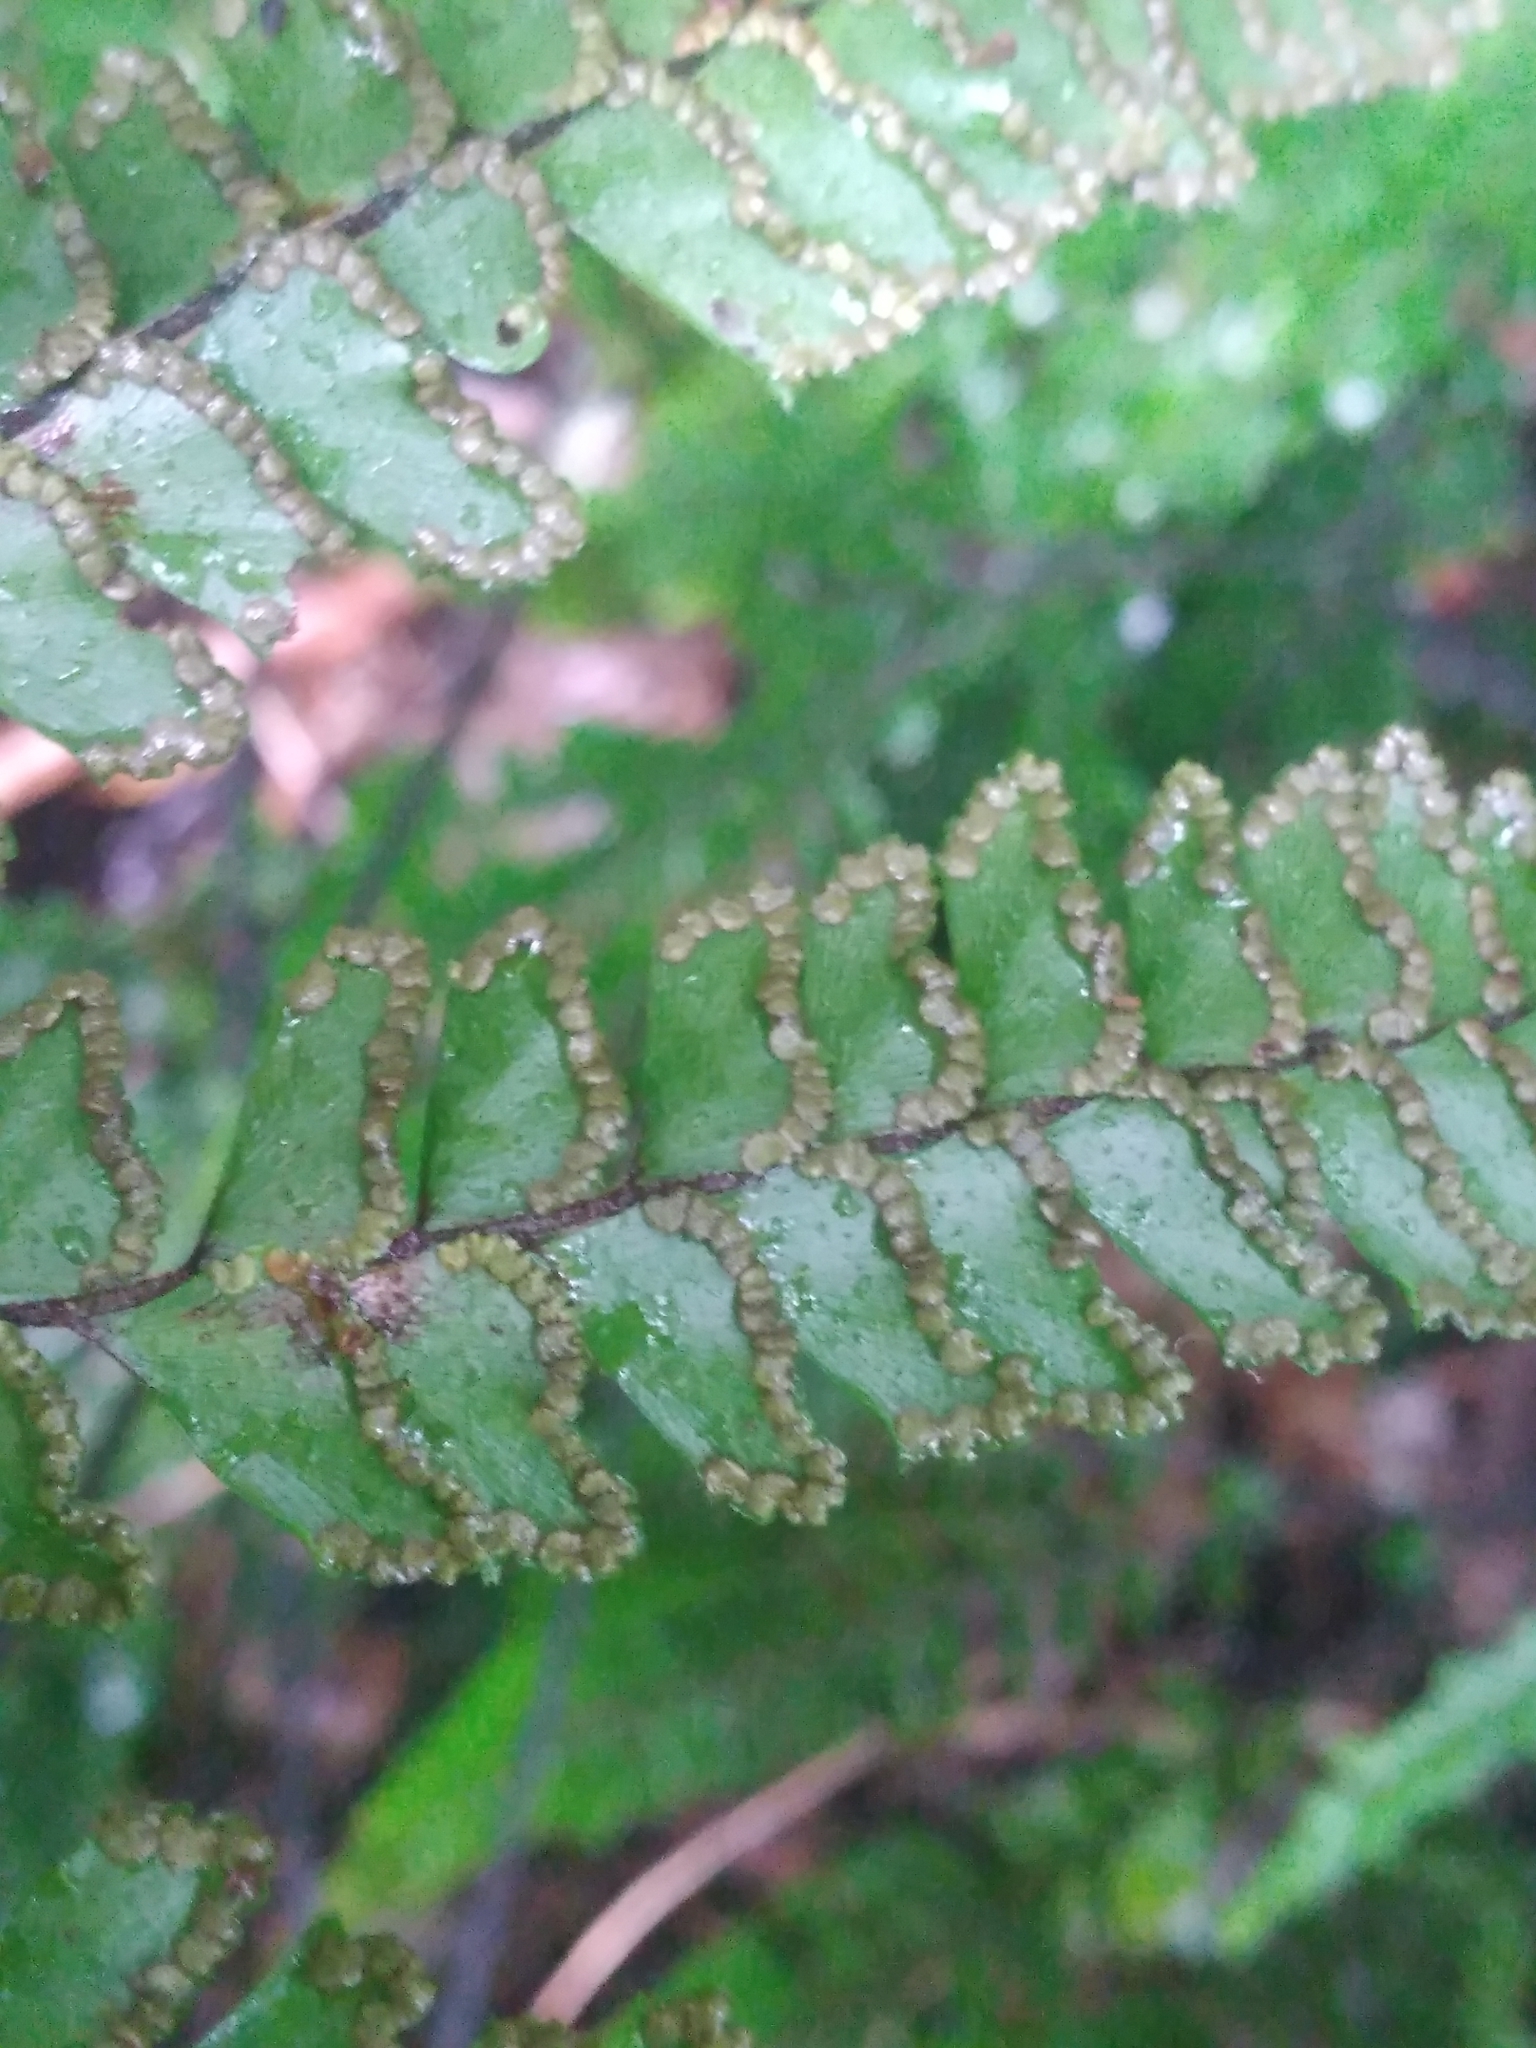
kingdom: Plantae
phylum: Tracheophyta
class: Polypodiopsida
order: Polypodiales
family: Pteridaceae
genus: Adiantum
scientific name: Adiantum hispidulum
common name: Rough maidenhair
